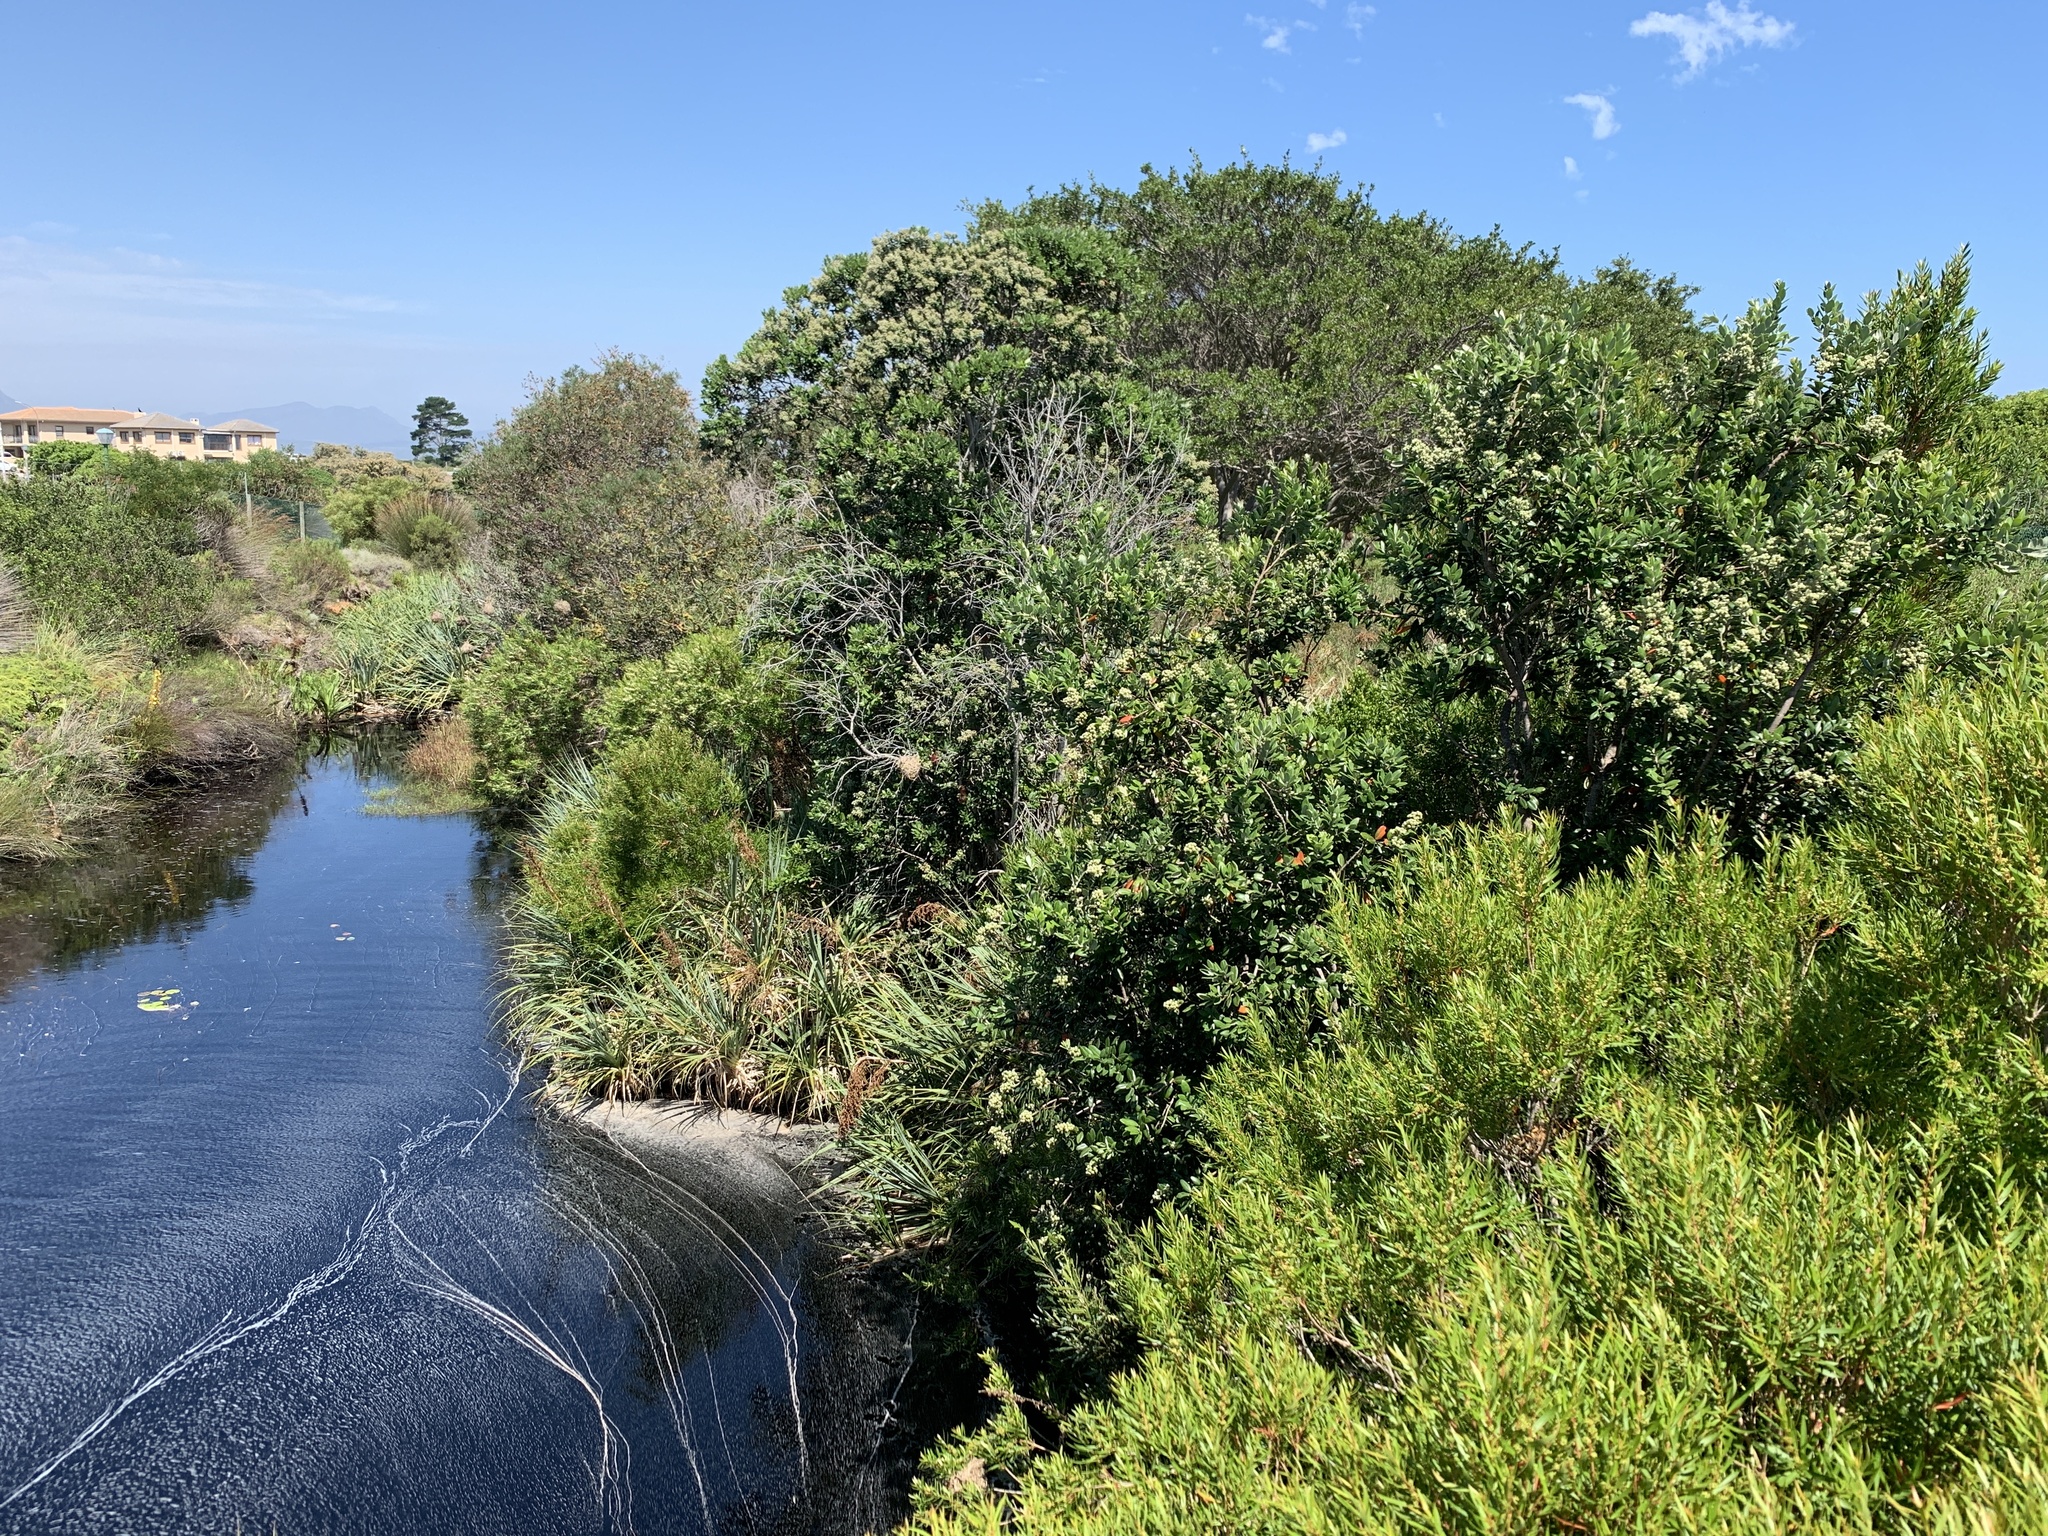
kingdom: Plantae
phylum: Tracheophyta
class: Magnoliopsida
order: Myrtales
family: Myrtaceae
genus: Metrosideros
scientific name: Metrosideros excelsa
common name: New zealand christmastree
